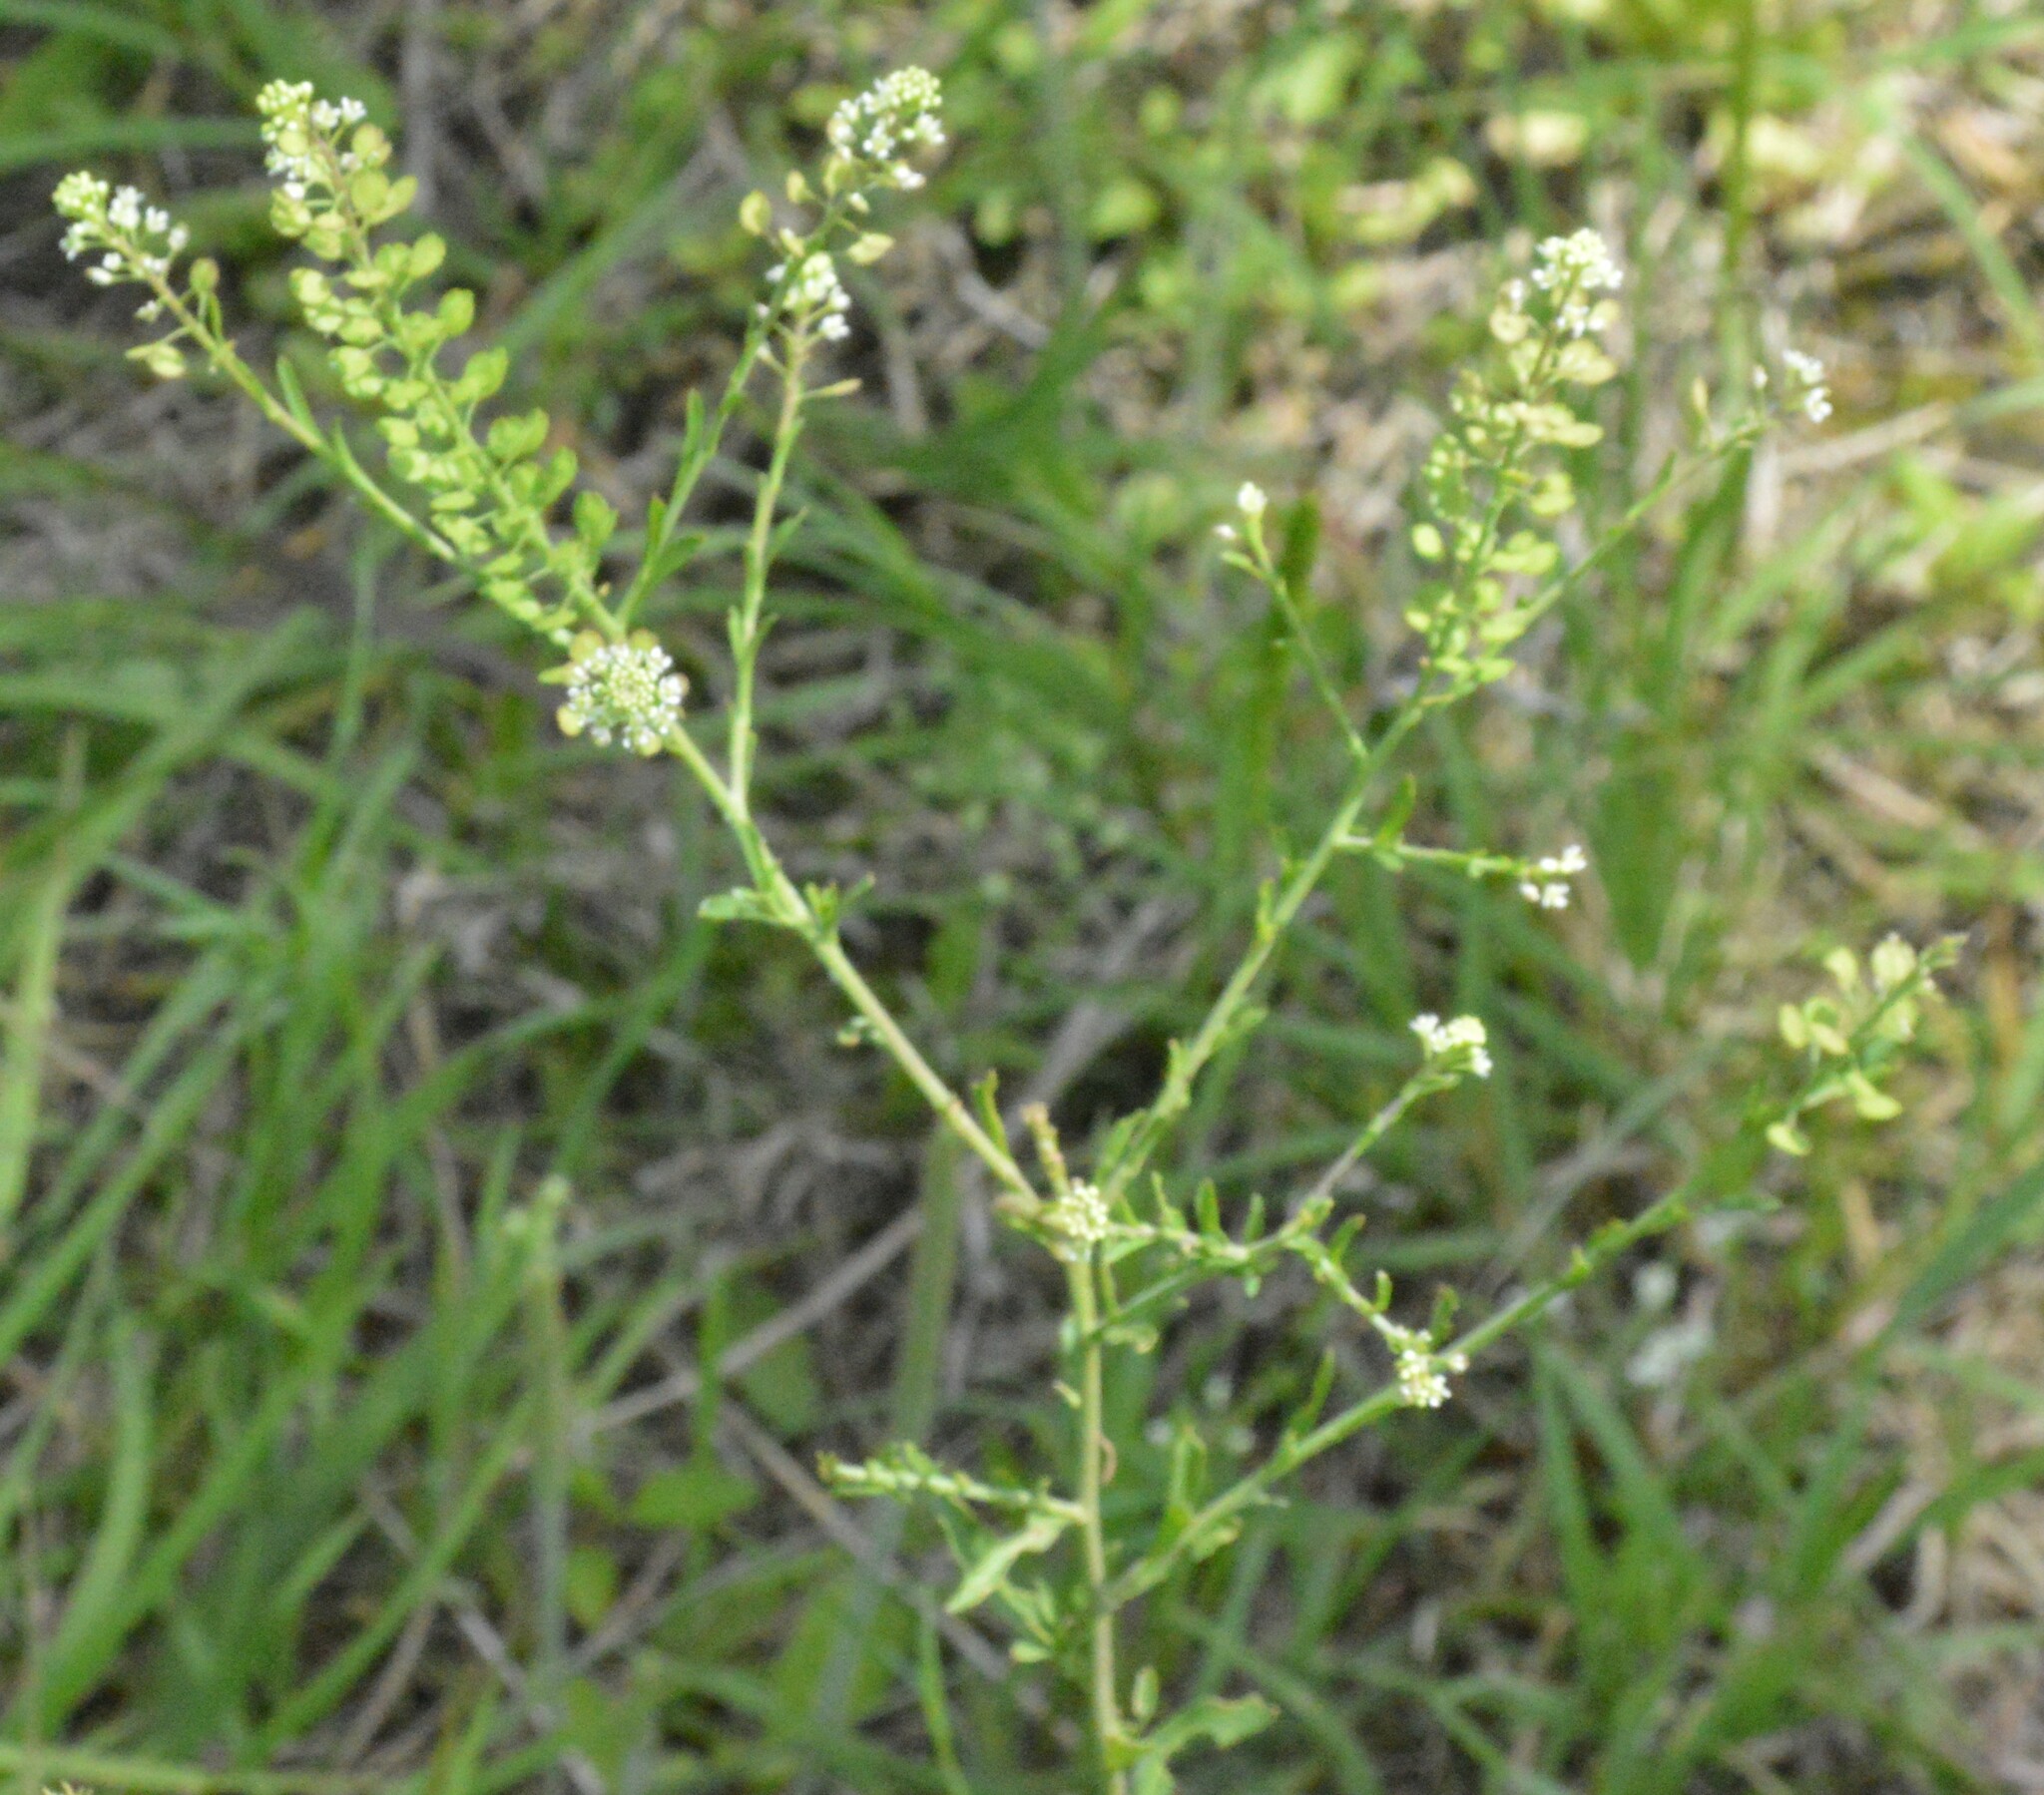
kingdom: Plantae
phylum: Tracheophyta
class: Magnoliopsida
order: Brassicales
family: Brassicaceae
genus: Lepidium
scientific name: Lepidium virginicum
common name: Least pepperwort
